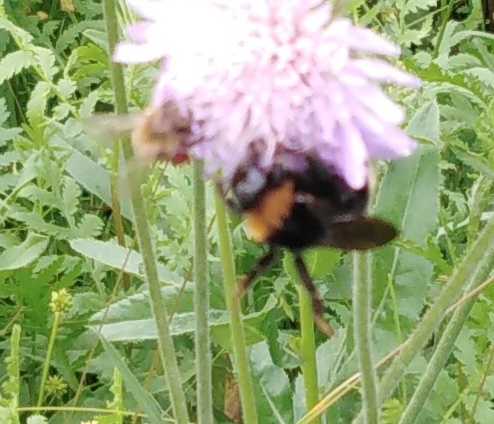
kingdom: Animalia
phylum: Arthropoda
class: Insecta
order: Hymenoptera
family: Apidae
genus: Bombus
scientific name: Bombus
